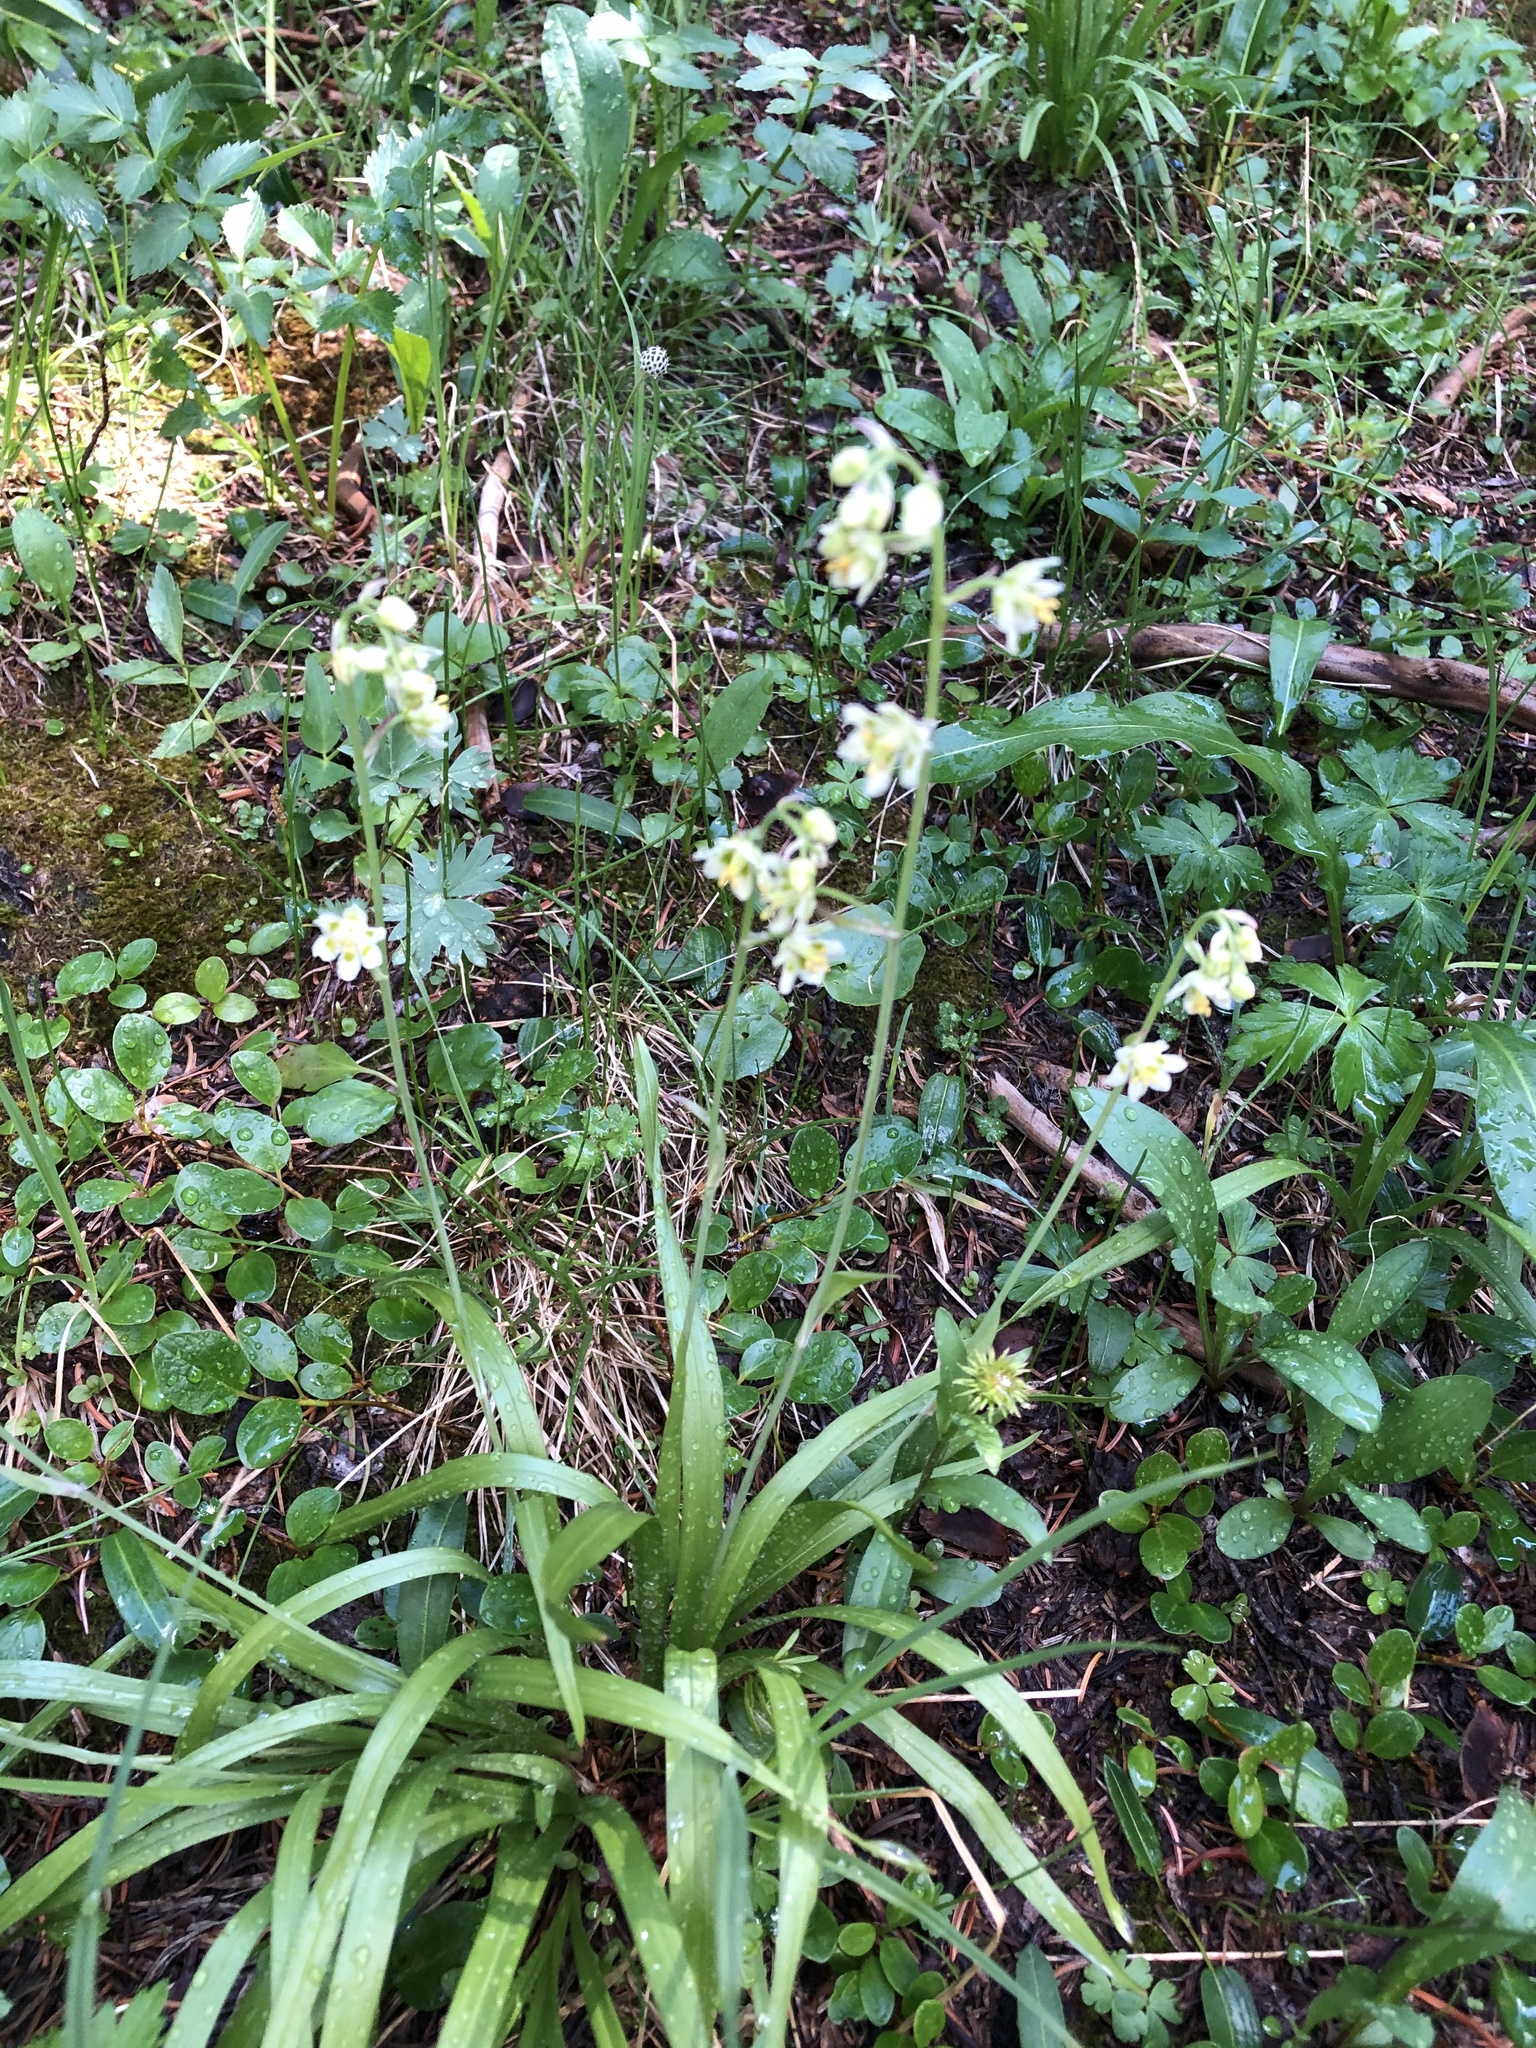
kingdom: Plantae
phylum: Tracheophyta
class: Liliopsida
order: Liliales
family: Melanthiaceae
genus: Anticlea
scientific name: Anticlea elegans
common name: Mountain death camas
